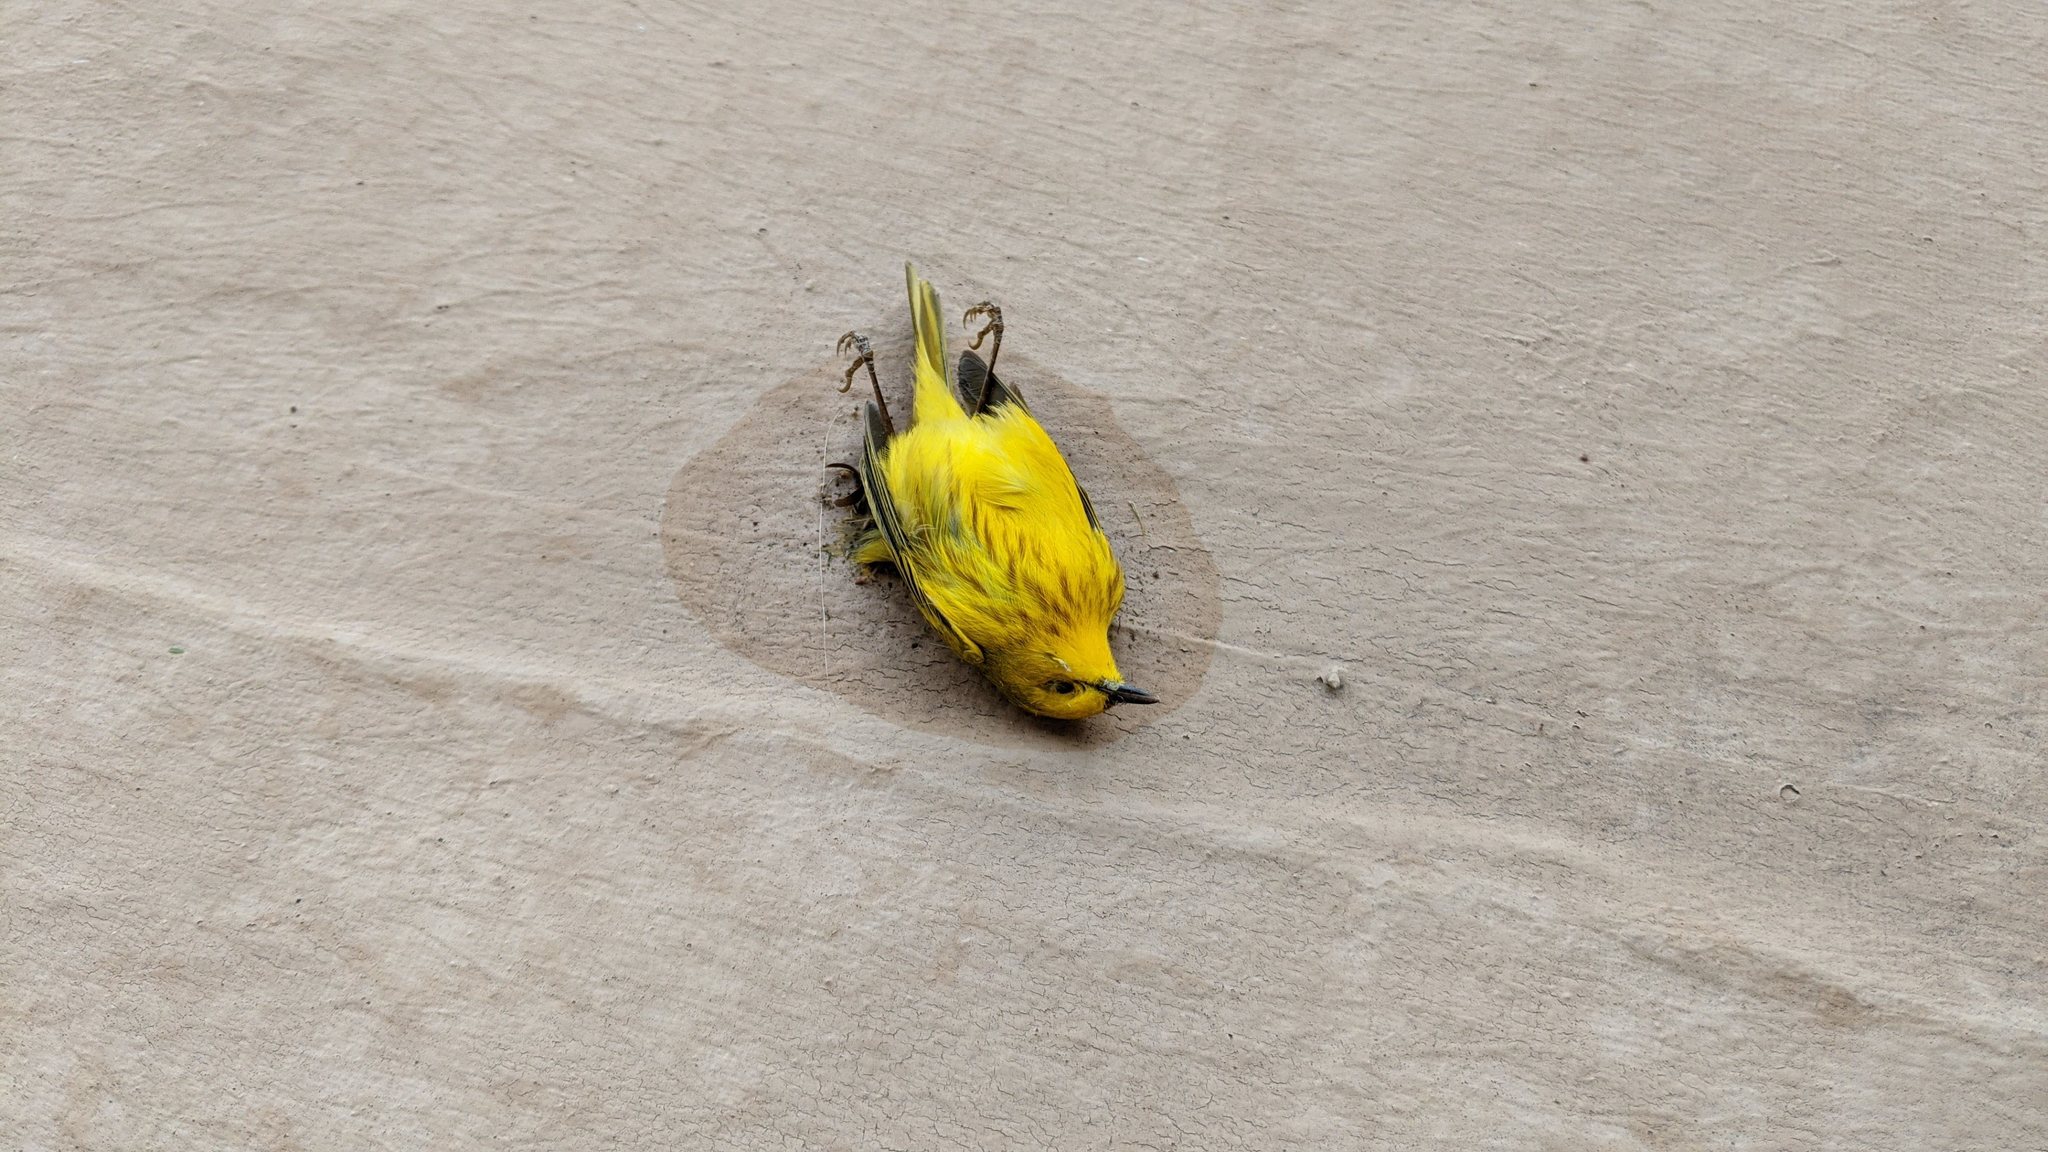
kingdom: Animalia
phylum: Chordata
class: Aves
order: Passeriformes
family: Parulidae
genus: Setophaga
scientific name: Setophaga petechia
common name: Yellow warbler
